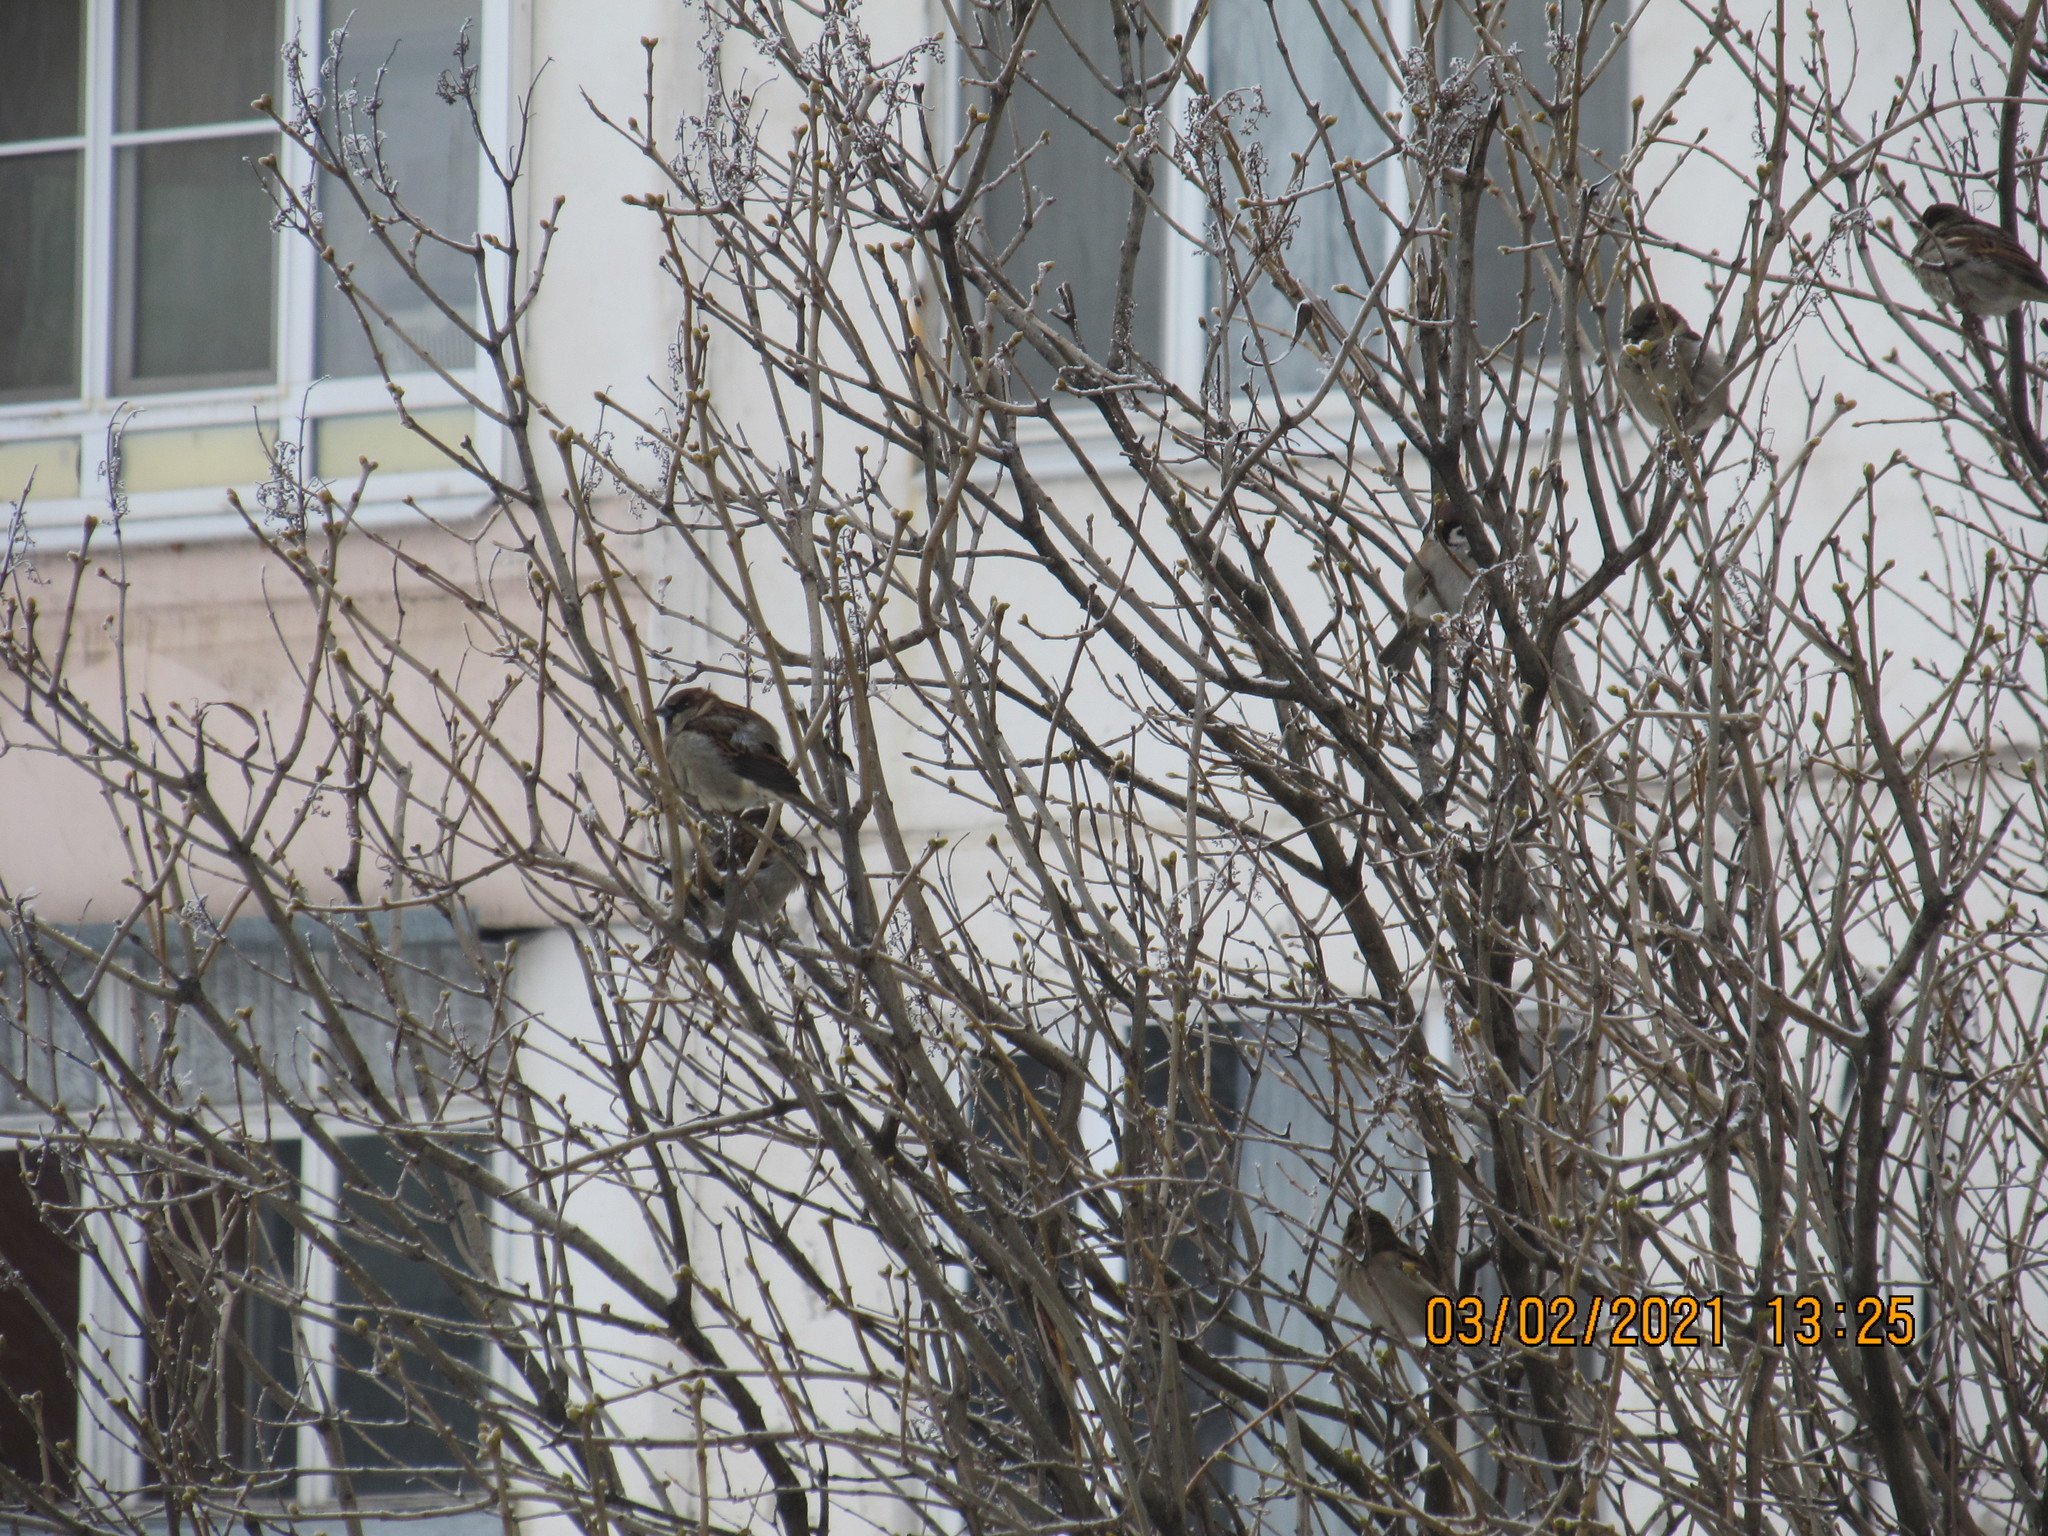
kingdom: Animalia
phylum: Chordata
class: Aves
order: Passeriformes
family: Passeridae
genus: Passer
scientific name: Passer domesticus
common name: House sparrow
